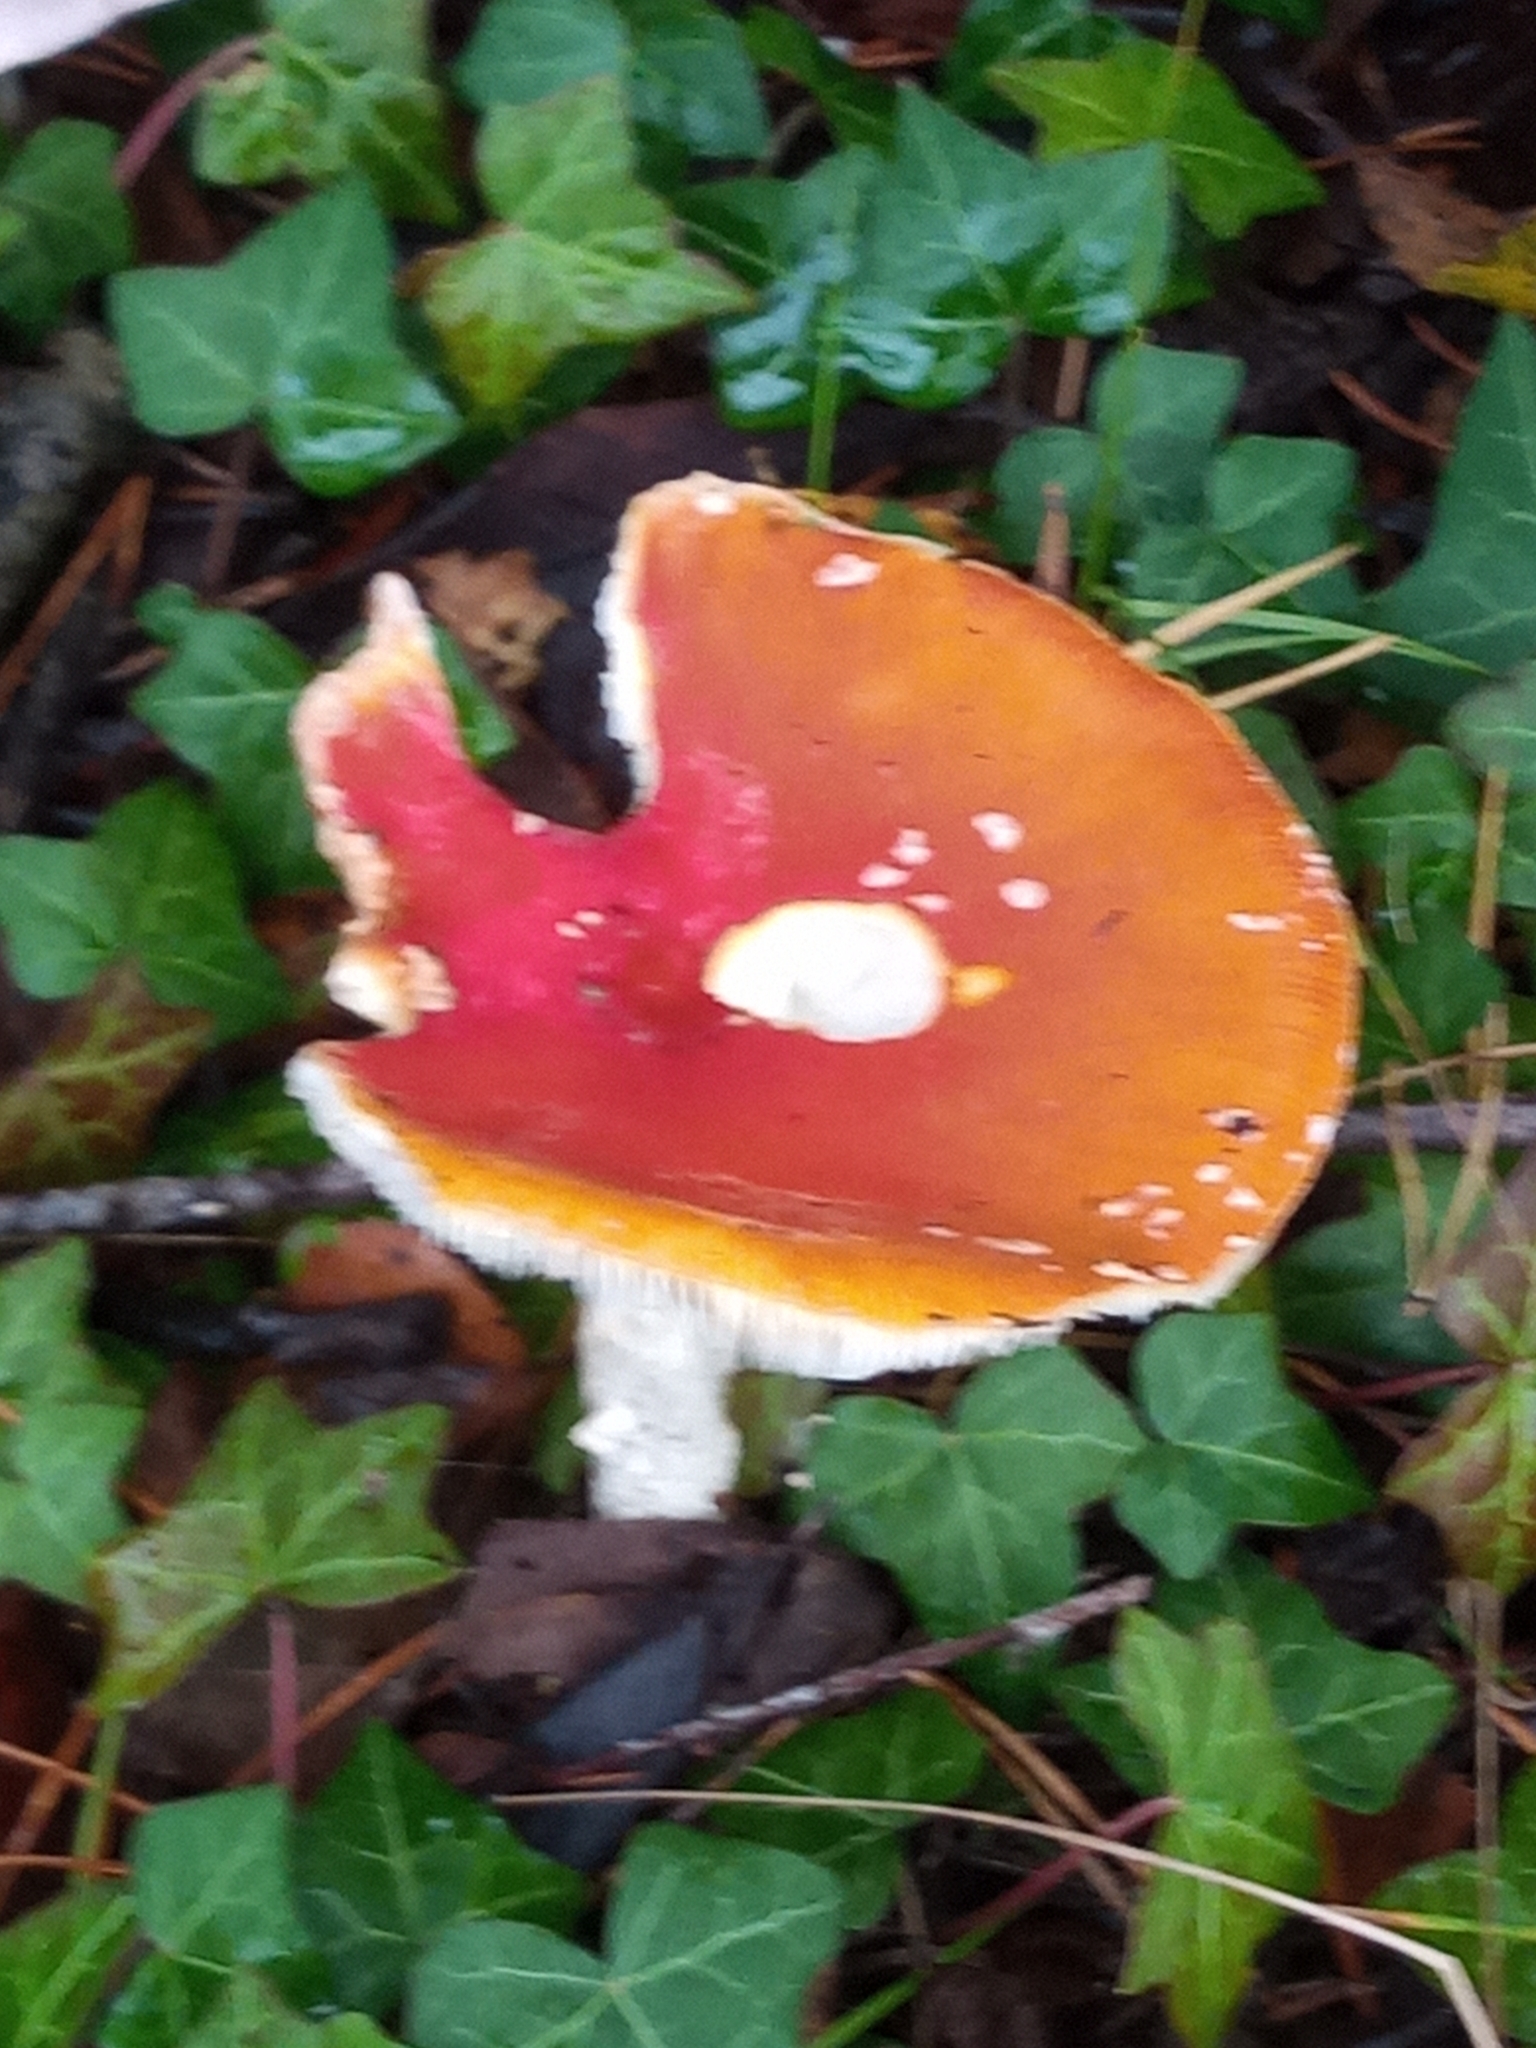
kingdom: Fungi
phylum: Basidiomycota
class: Agaricomycetes
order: Agaricales
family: Amanitaceae
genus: Amanita
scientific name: Amanita muscaria
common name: Fly agaric
